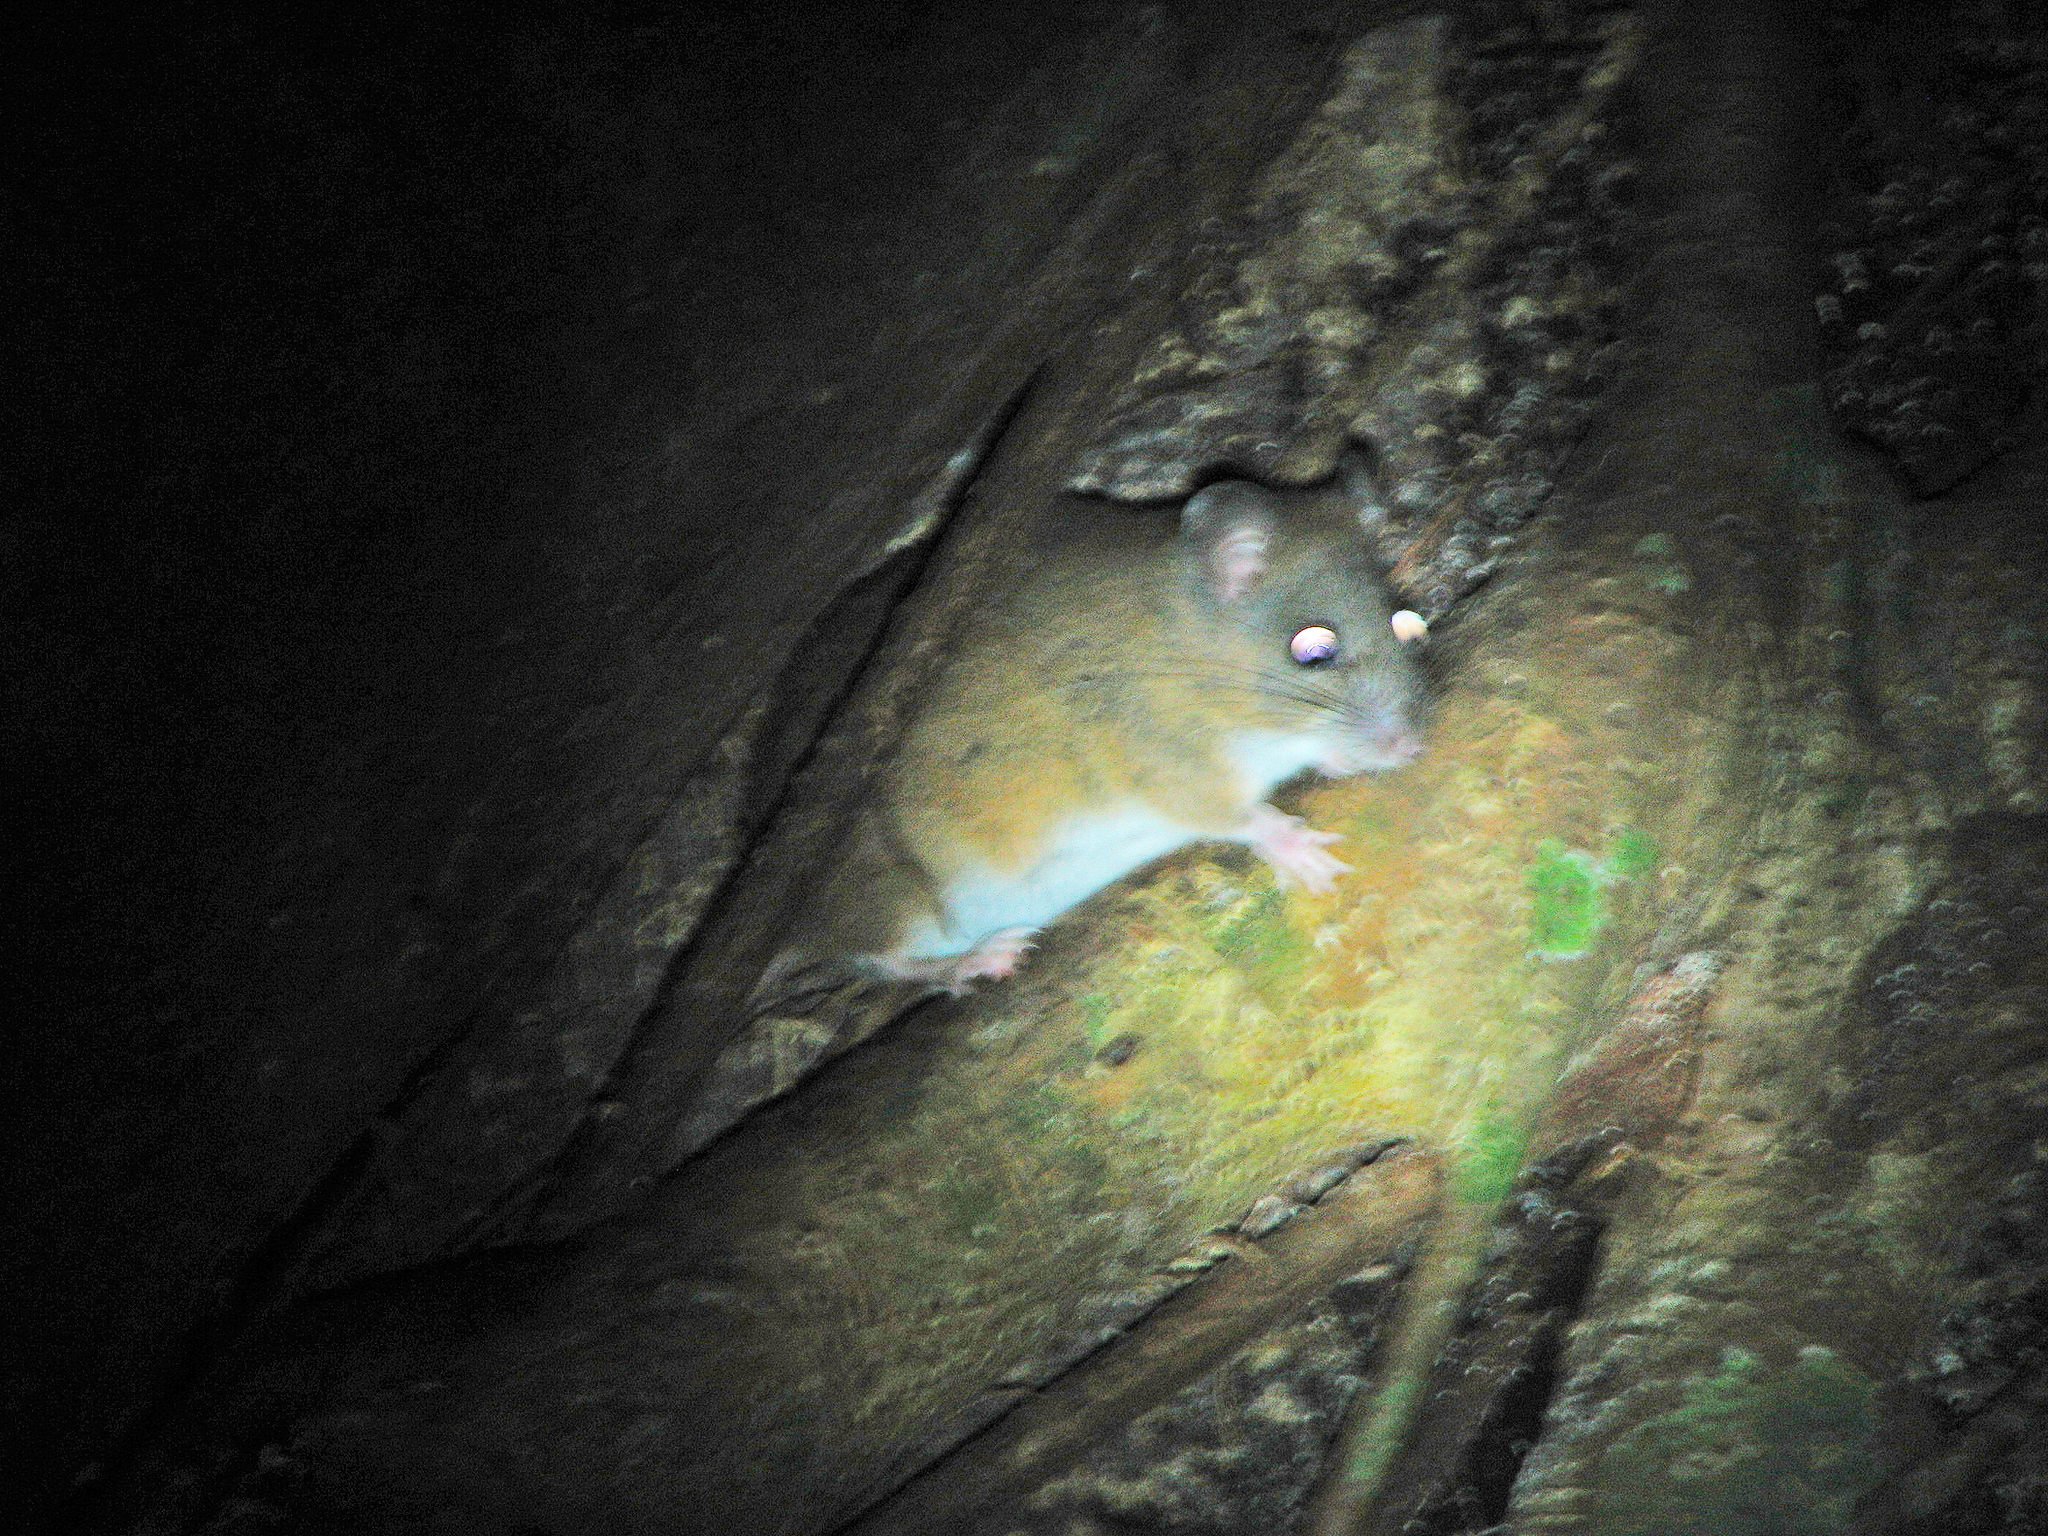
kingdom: Animalia
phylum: Chordata
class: Mammalia
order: Rodentia
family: Muridae
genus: Melomys
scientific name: Melomys cervinipes
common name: Fawn-footed melomys
